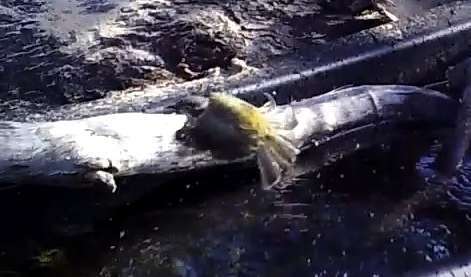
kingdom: Animalia
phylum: Chordata
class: Aves
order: Passeriformes
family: Meliphagidae
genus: Melithreptus
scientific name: Melithreptus brevirostris
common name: Brown-headed honeyeater
